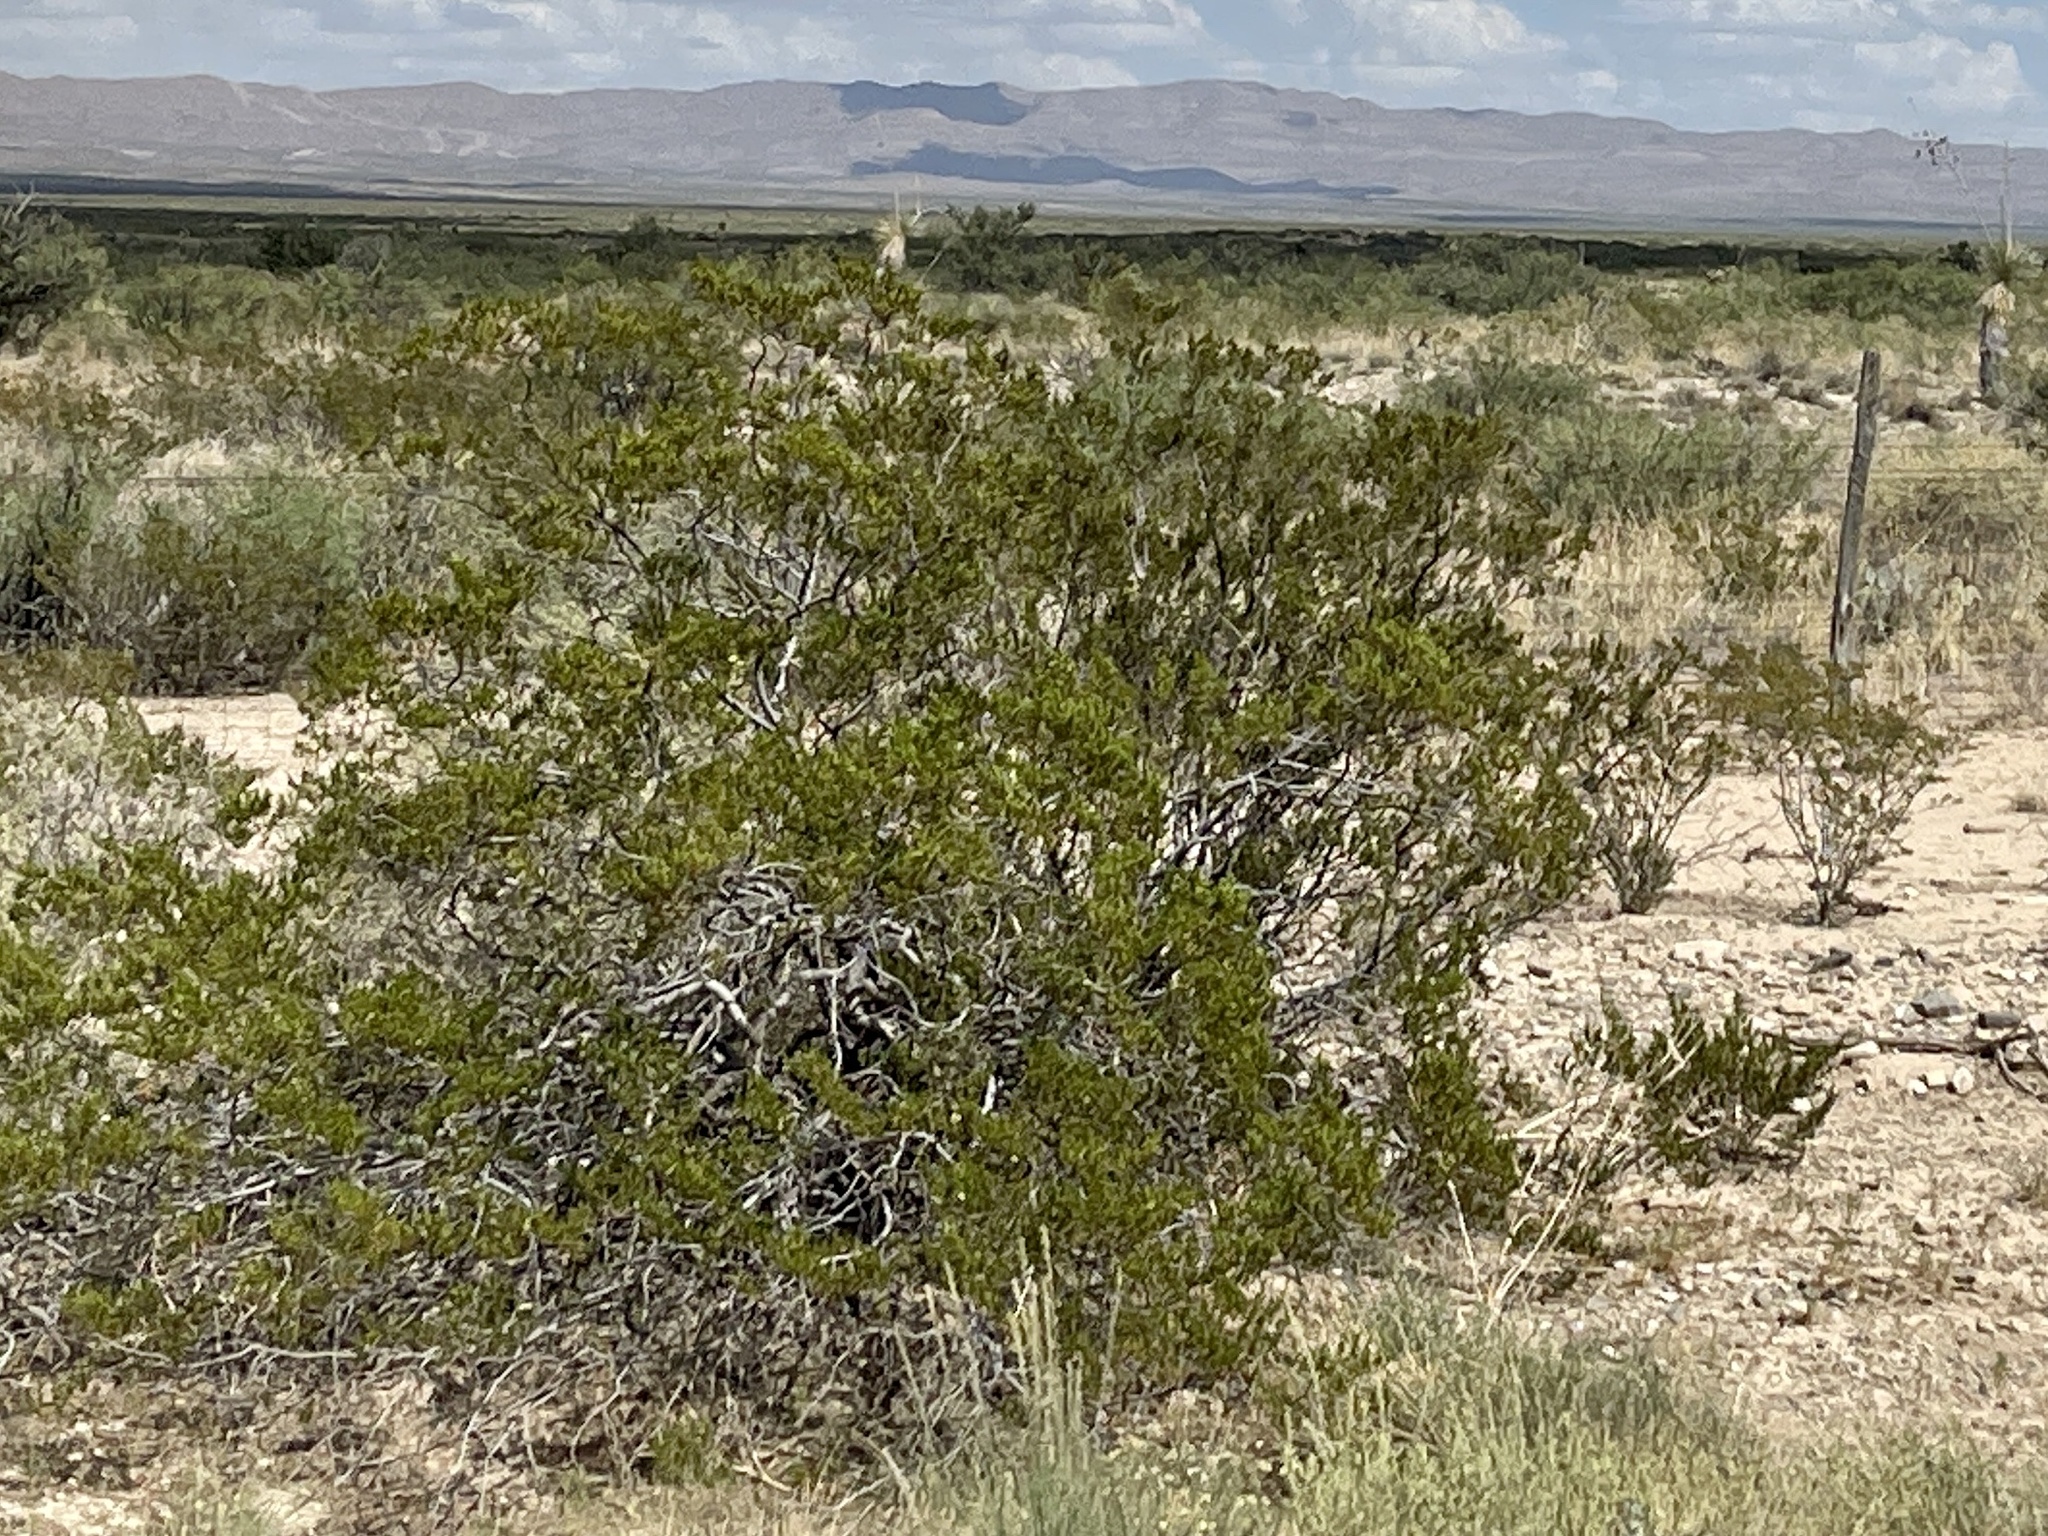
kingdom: Plantae
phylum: Tracheophyta
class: Magnoliopsida
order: Zygophyllales
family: Zygophyllaceae
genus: Larrea
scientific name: Larrea tridentata
